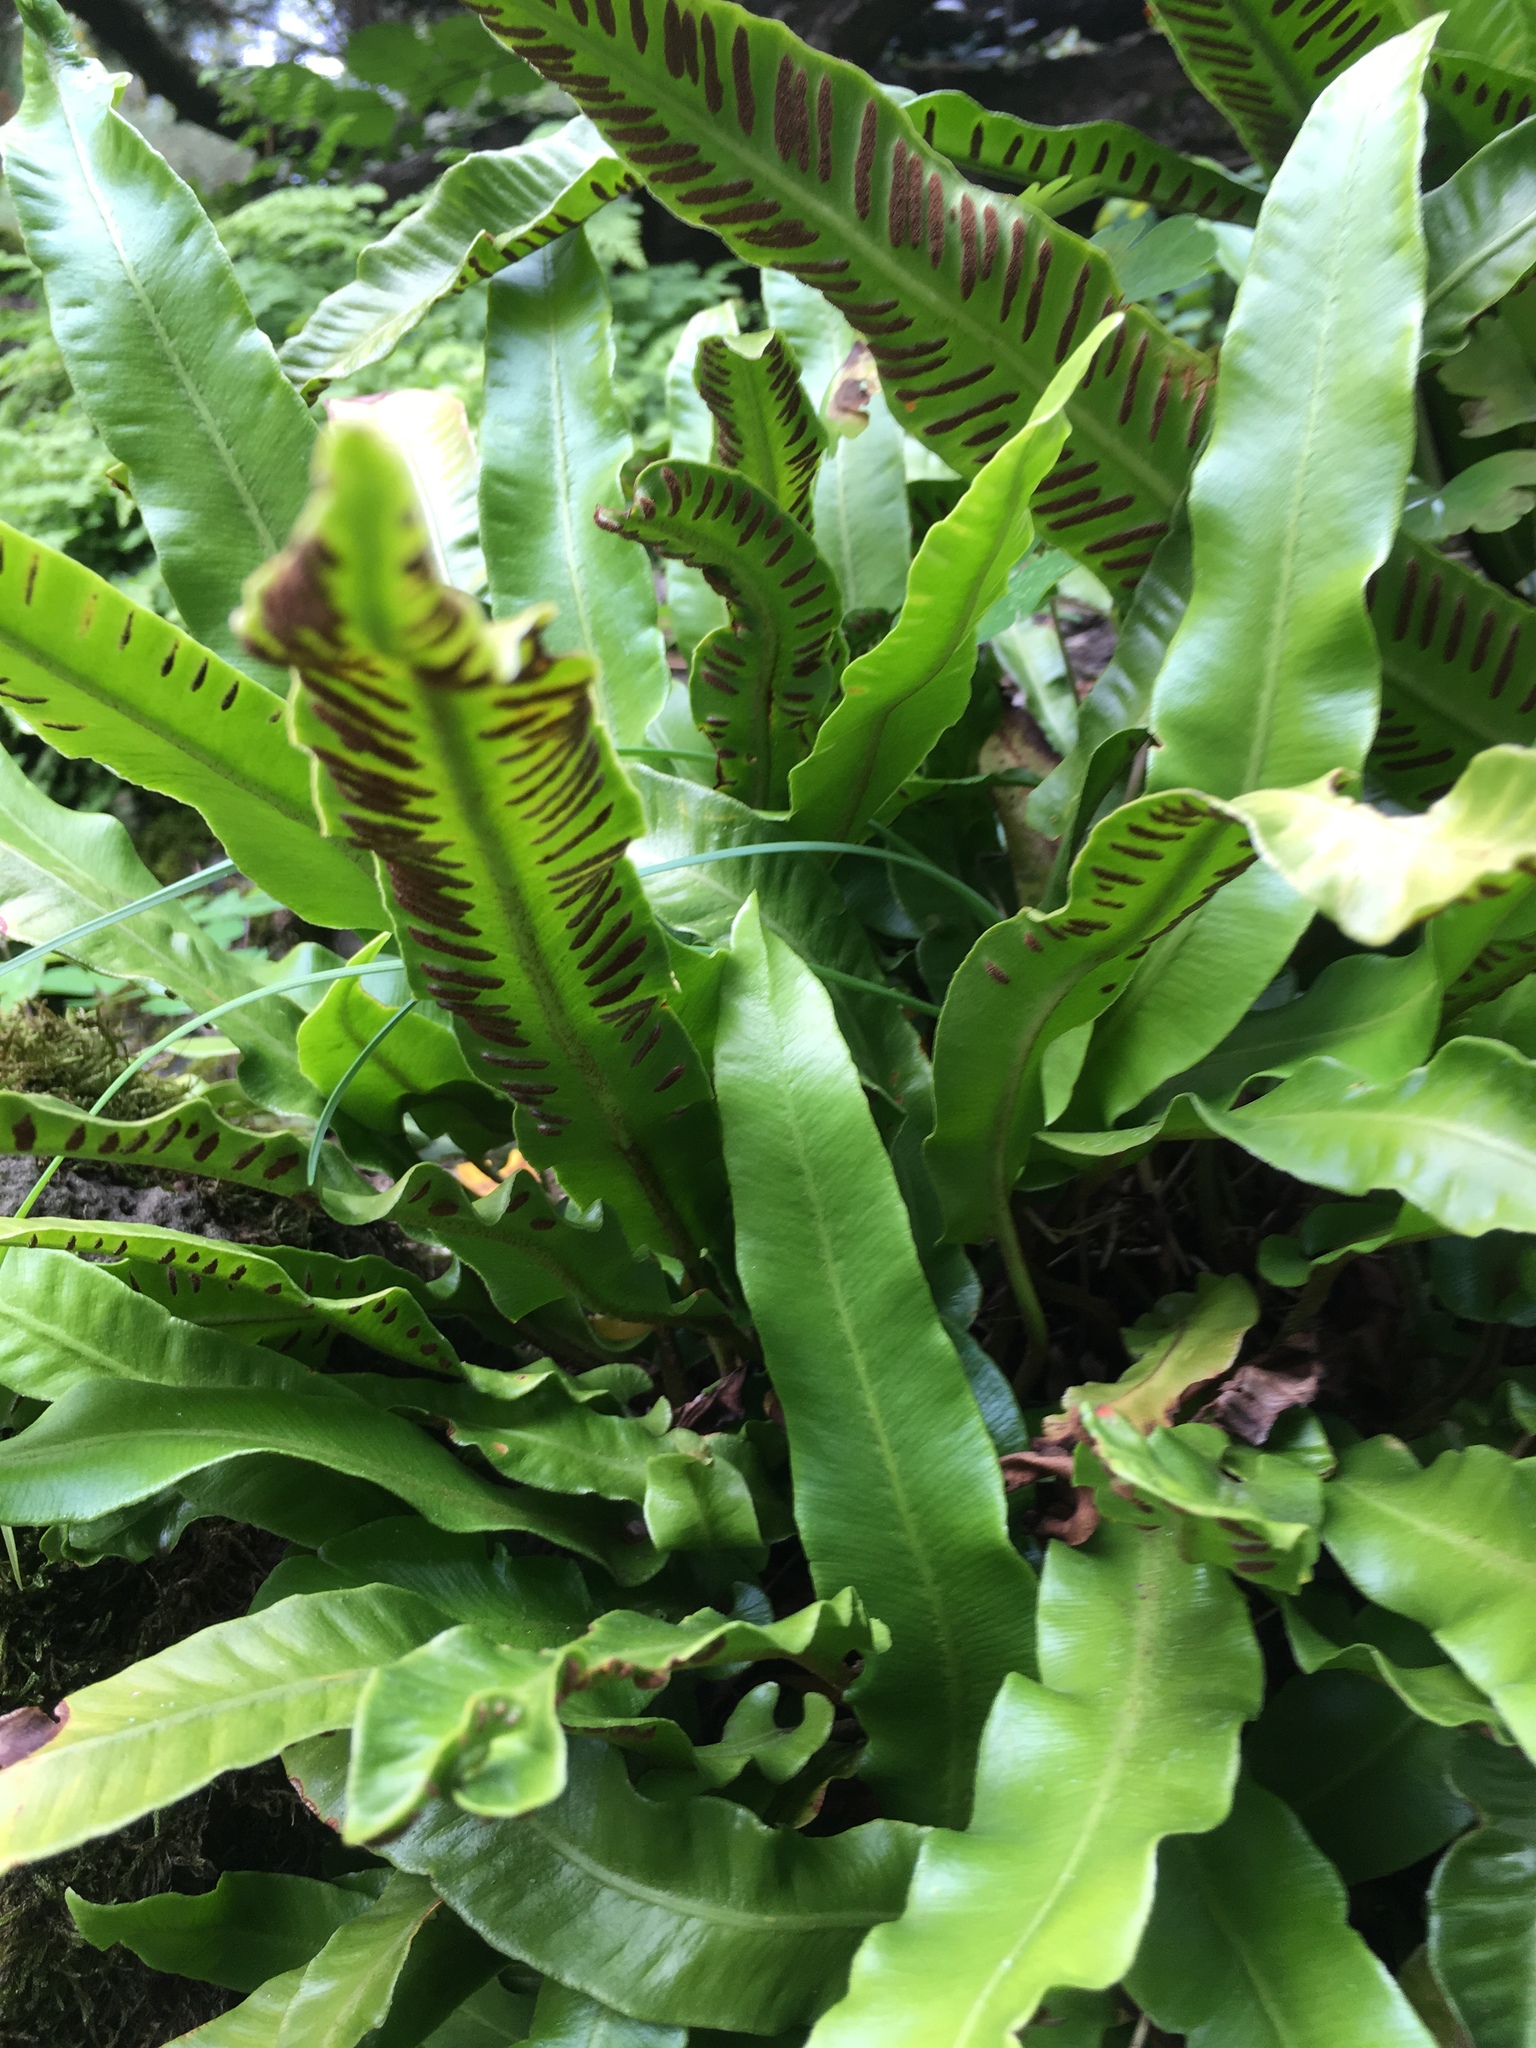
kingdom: Plantae
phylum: Tracheophyta
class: Polypodiopsida
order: Polypodiales
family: Aspleniaceae
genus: Asplenium
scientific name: Asplenium scolopendrium
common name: Hart's-tongue fern
